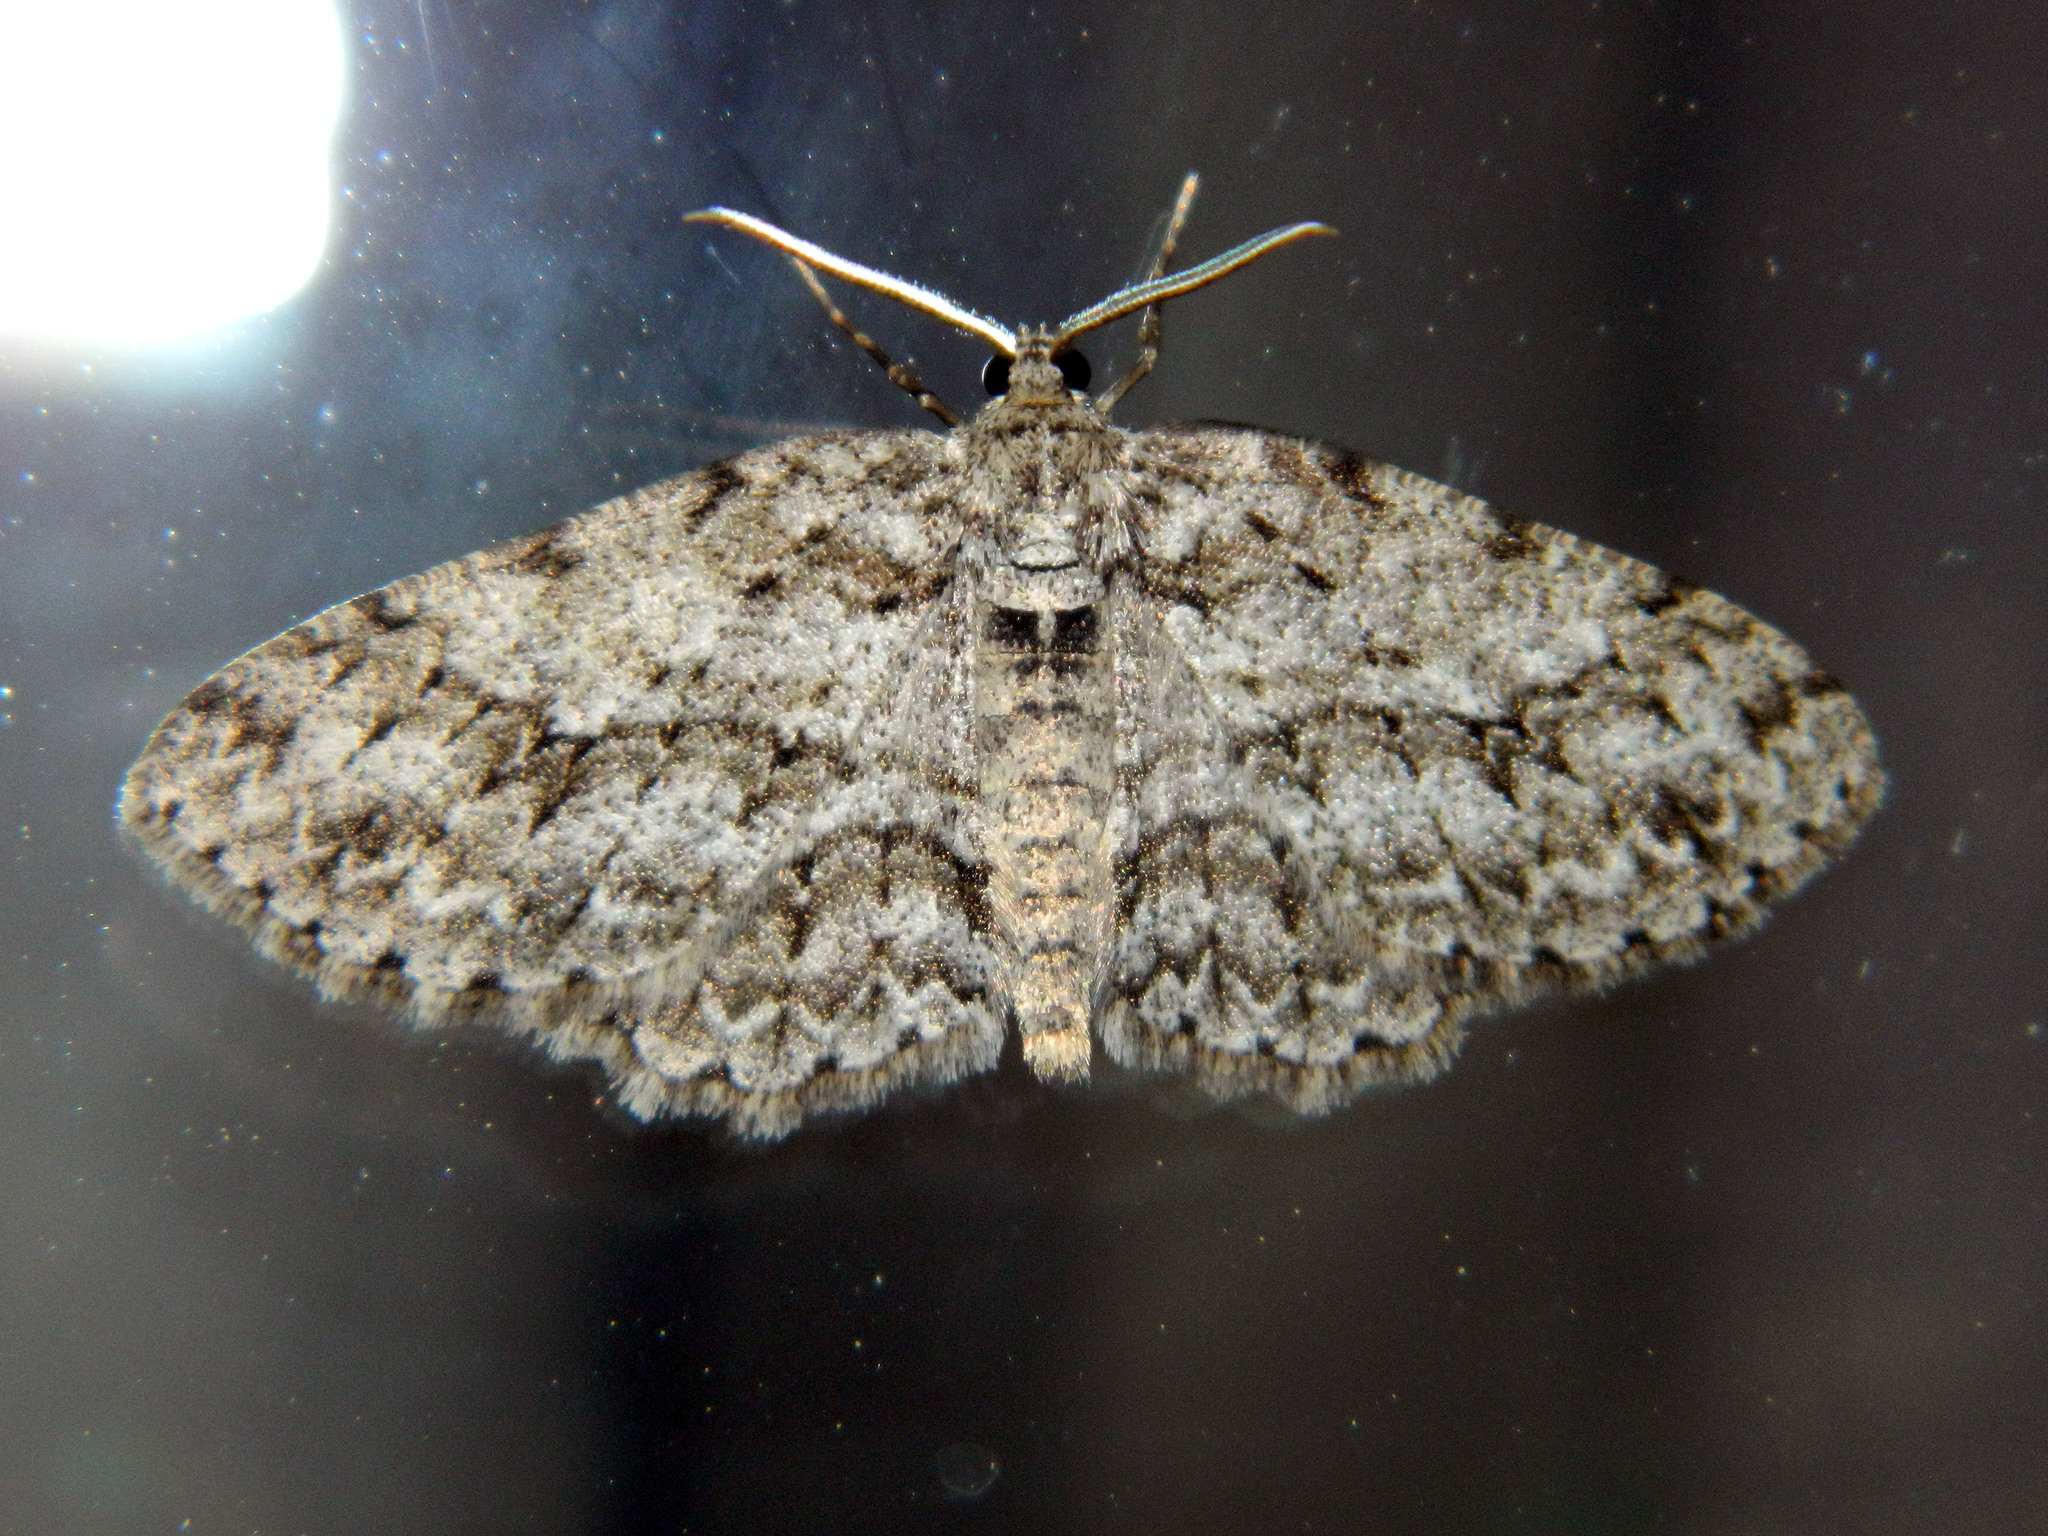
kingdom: Animalia
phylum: Arthropoda
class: Insecta
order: Lepidoptera
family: Geometridae
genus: Ectropis
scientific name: Ectropis crepuscularia
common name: Engrailed
